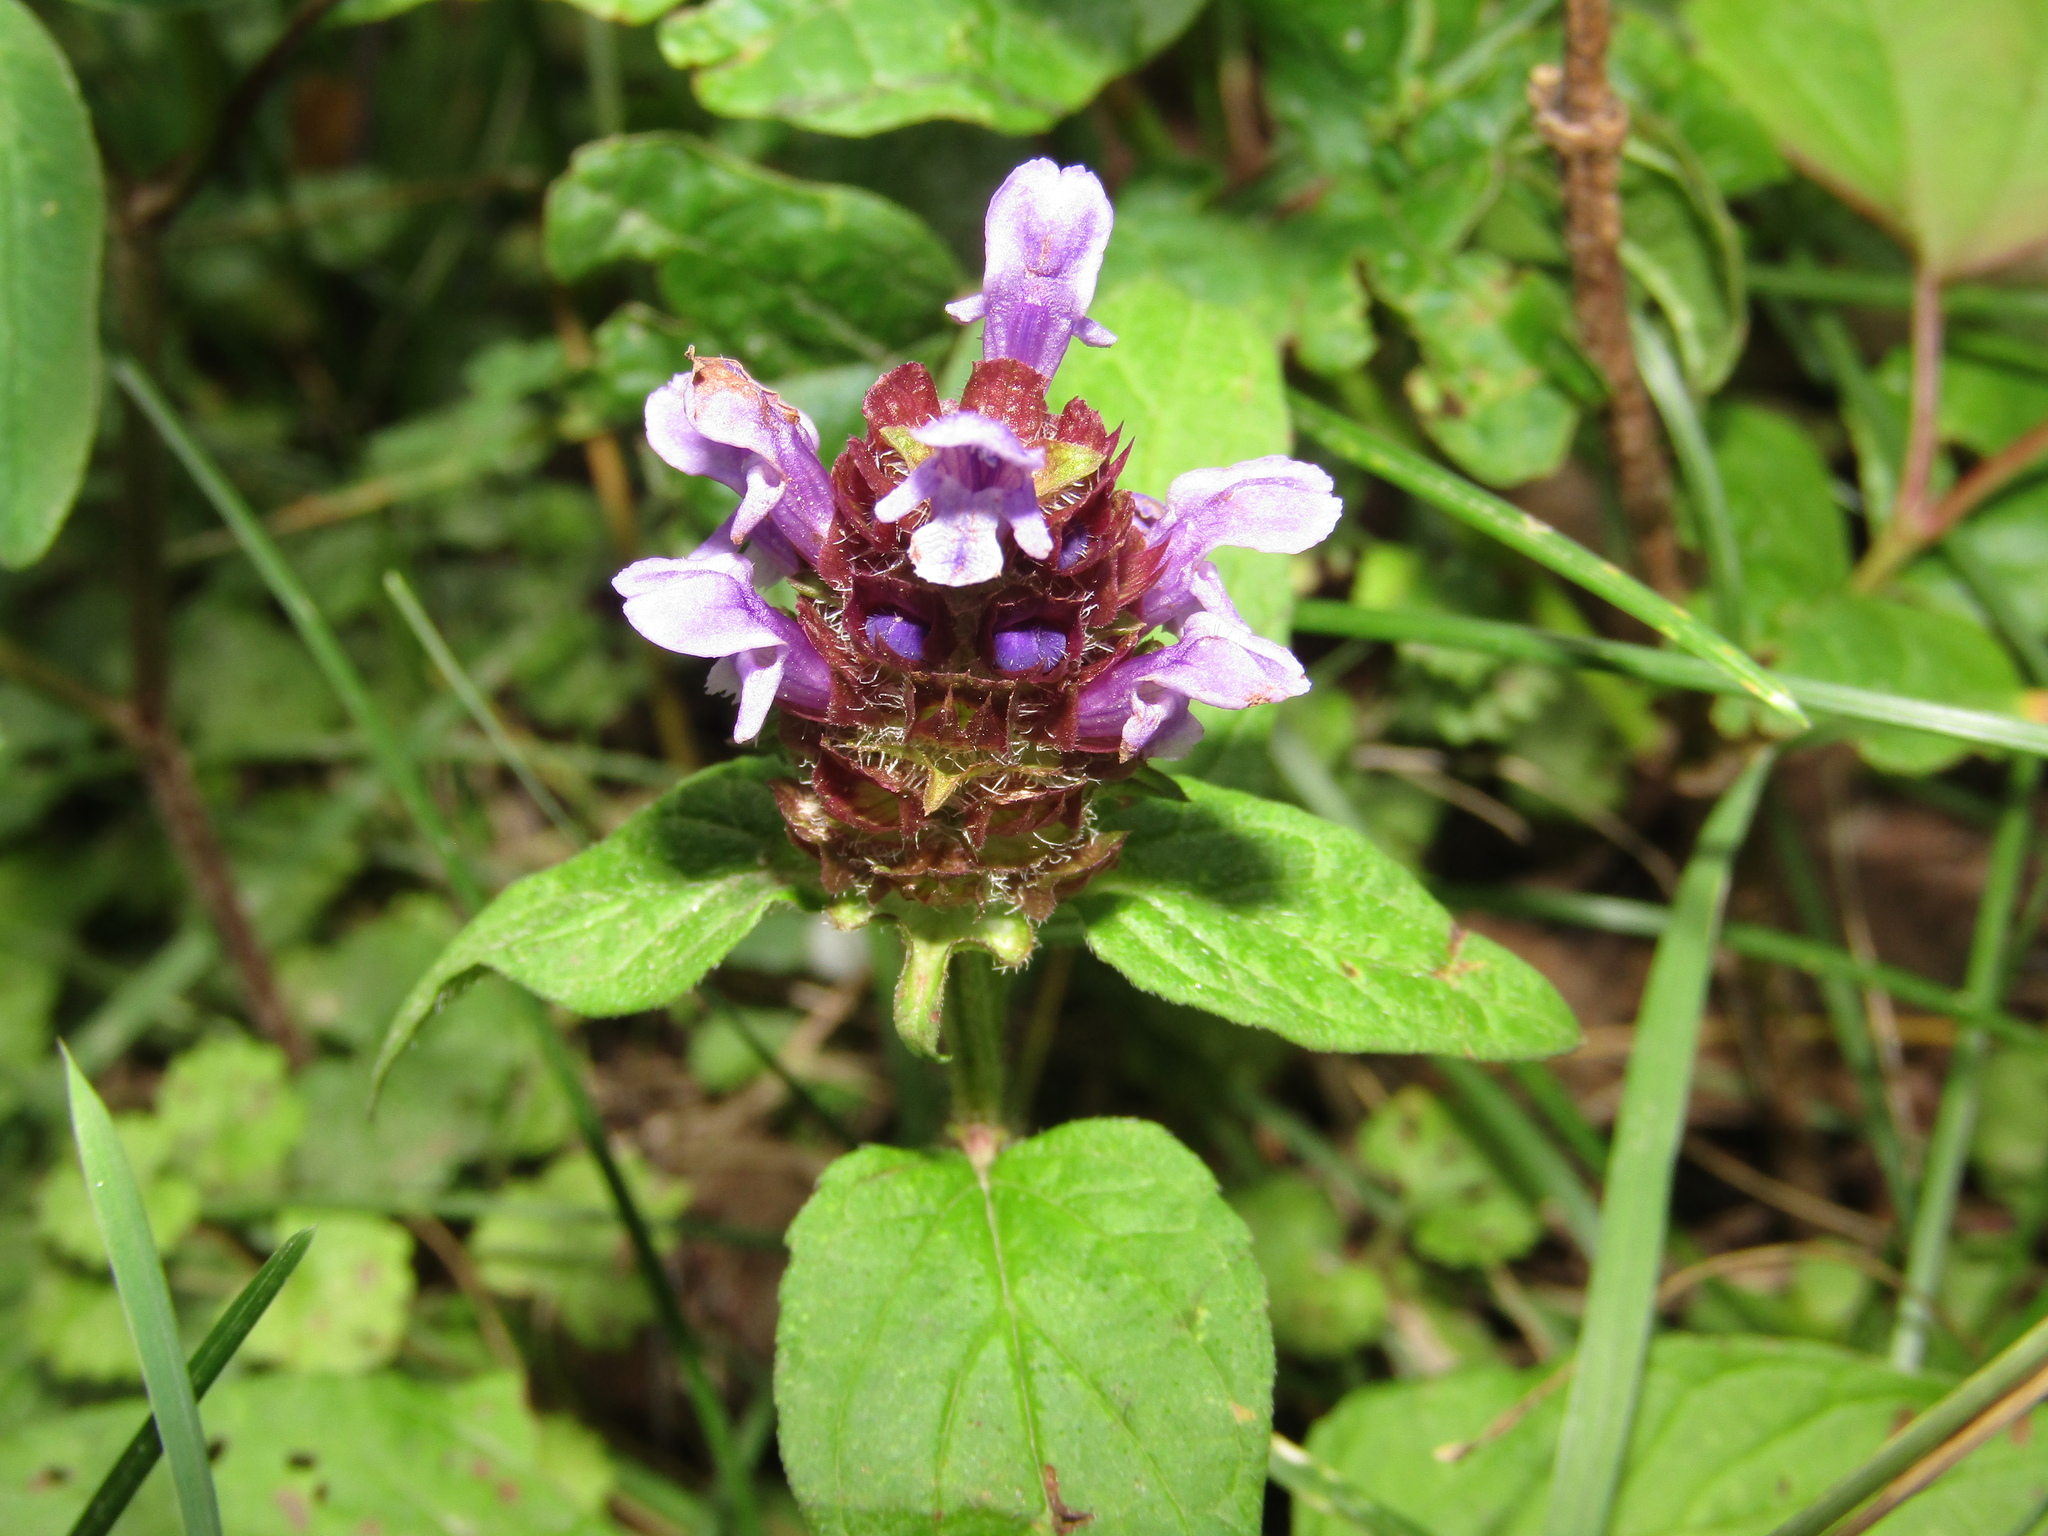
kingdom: Plantae
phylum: Tracheophyta
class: Magnoliopsida
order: Lamiales
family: Lamiaceae
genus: Prunella
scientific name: Prunella vulgaris
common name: Heal-all
